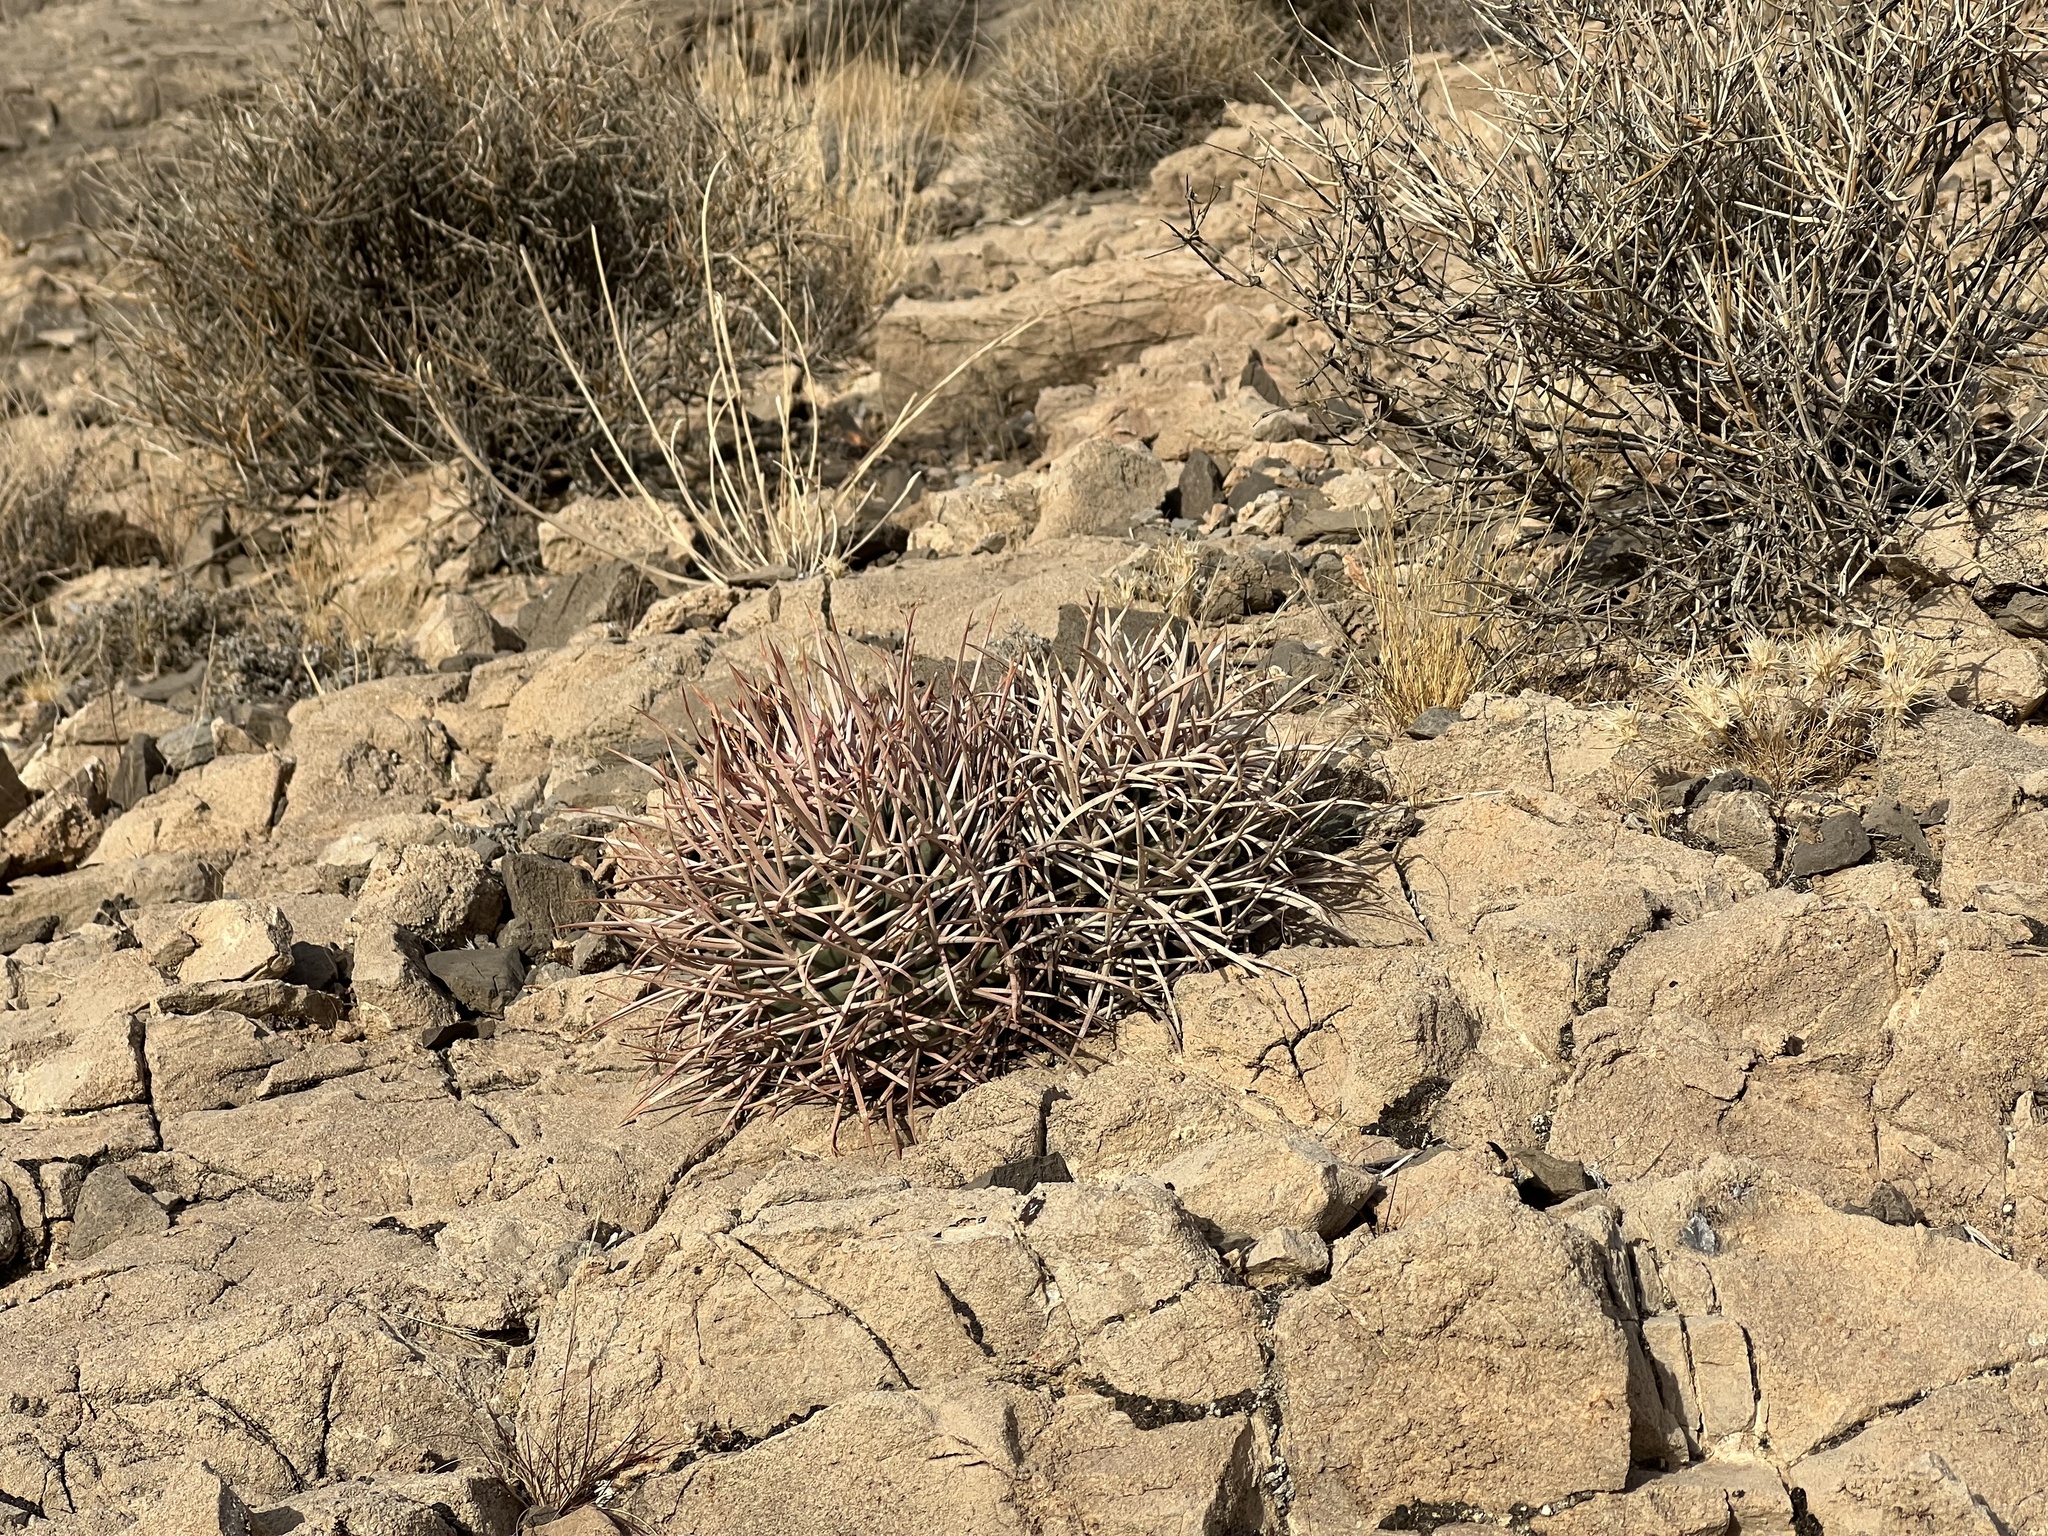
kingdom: Plantae
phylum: Tracheophyta
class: Magnoliopsida
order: Caryophyllales
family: Cactaceae
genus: Echinocactus
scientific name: Echinocactus polycephalus
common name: Cottontop cactus
